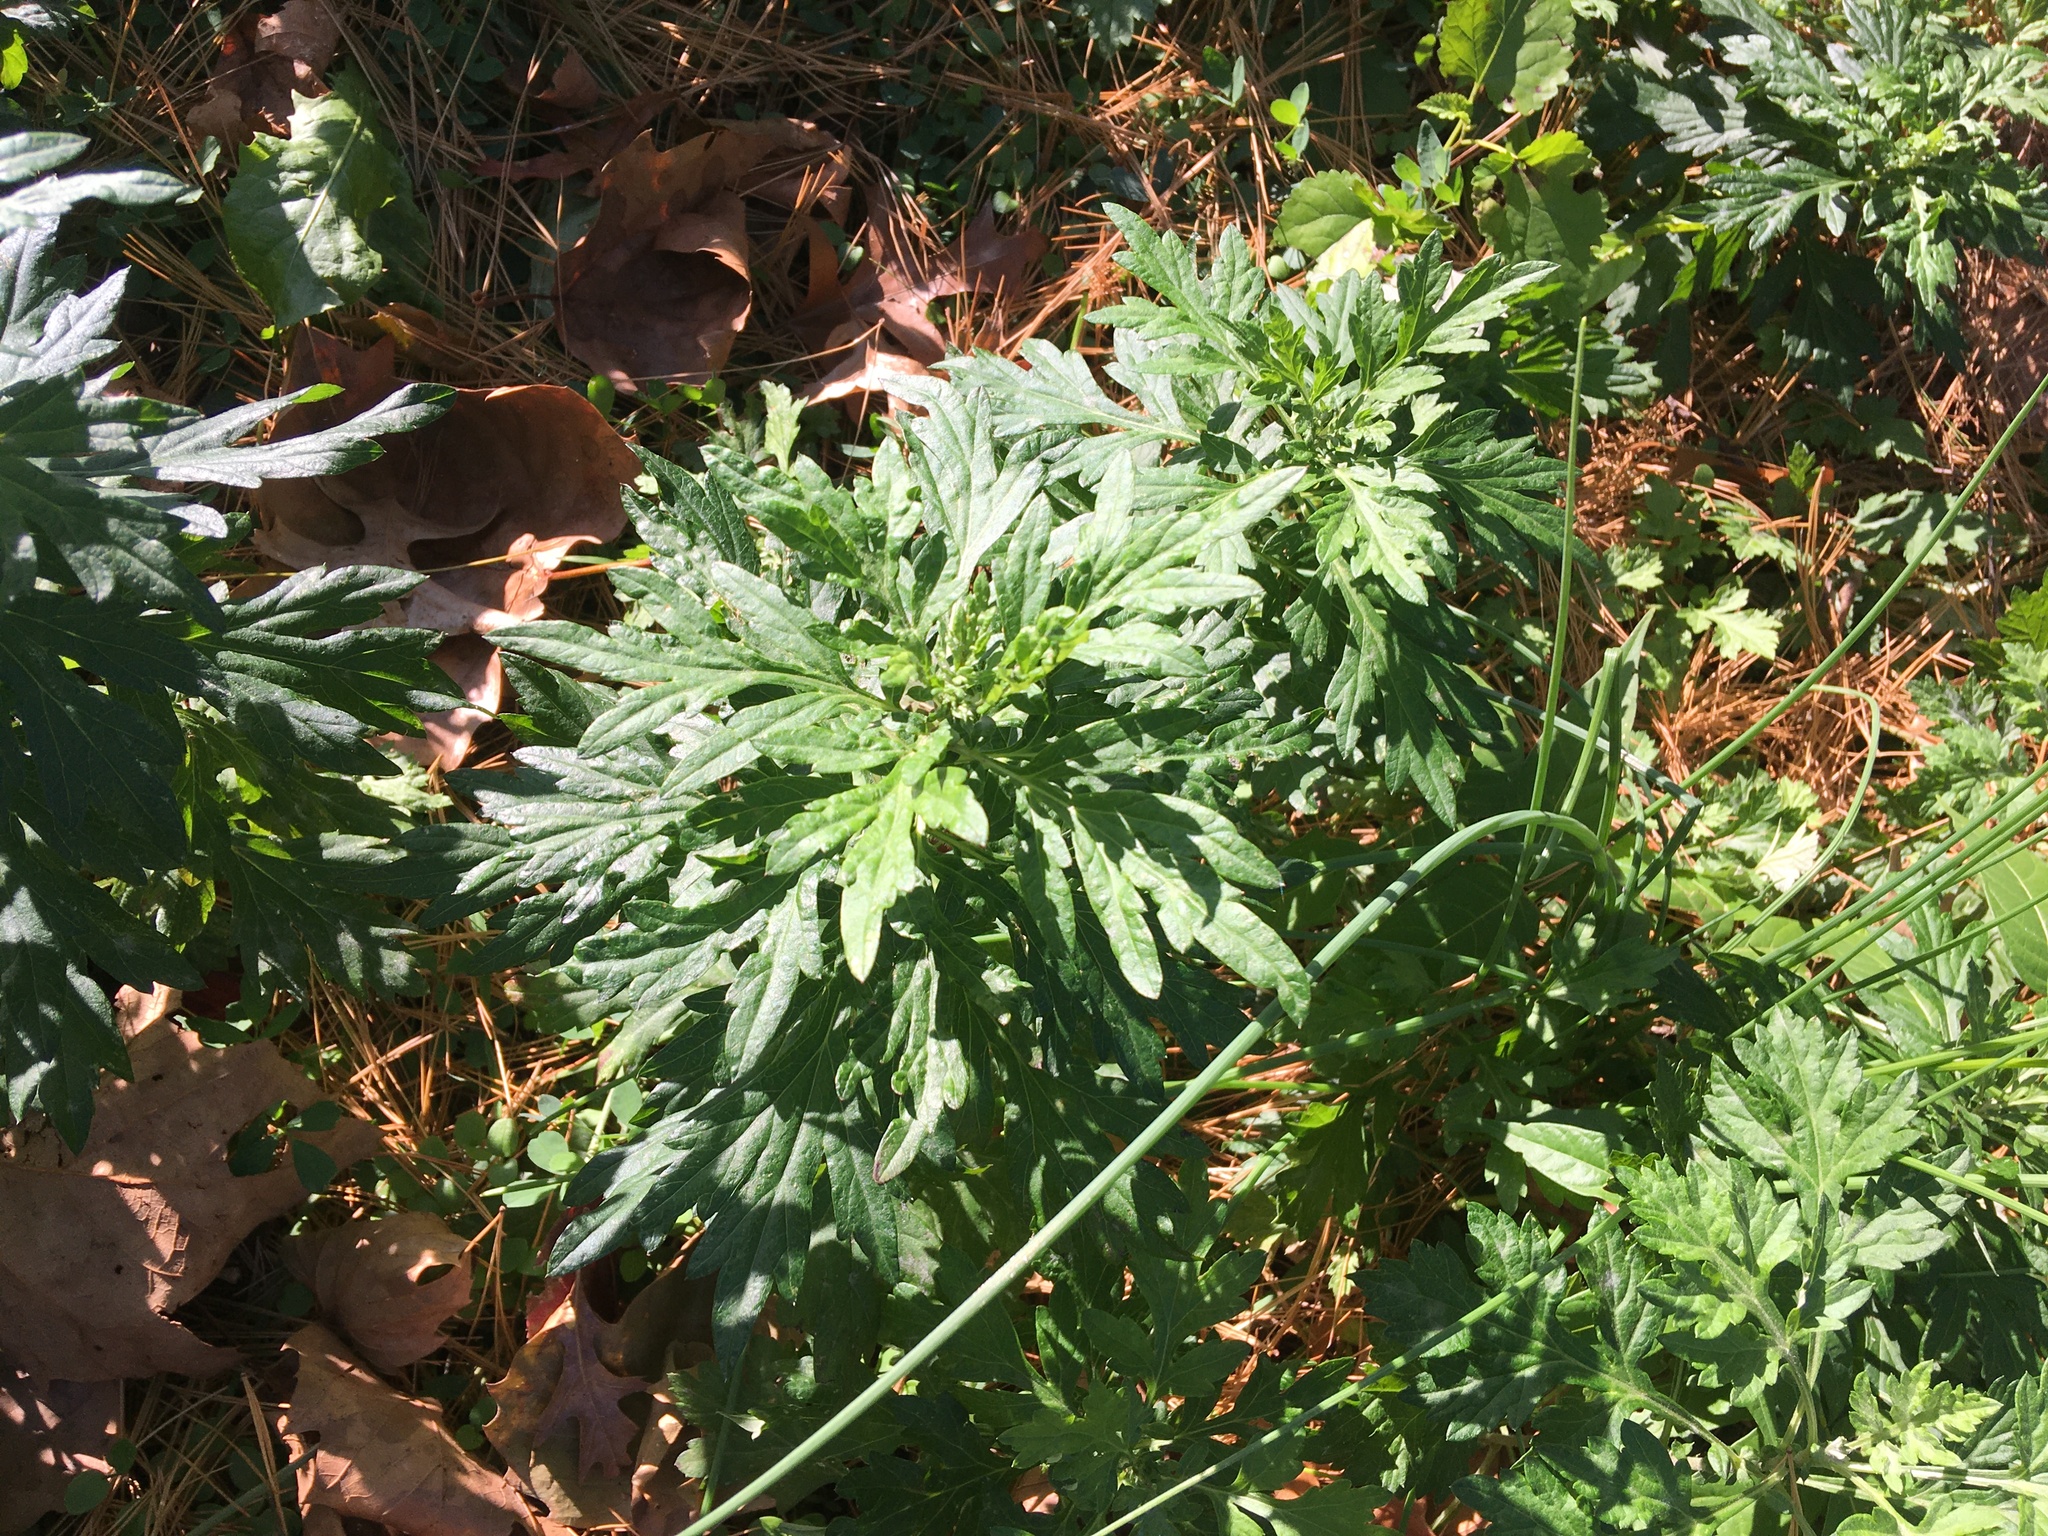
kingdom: Plantae
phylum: Tracheophyta
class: Magnoliopsida
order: Asterales
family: Asteraceae
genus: Artemisia
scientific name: Artemisia vulgaris
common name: Mugwort
